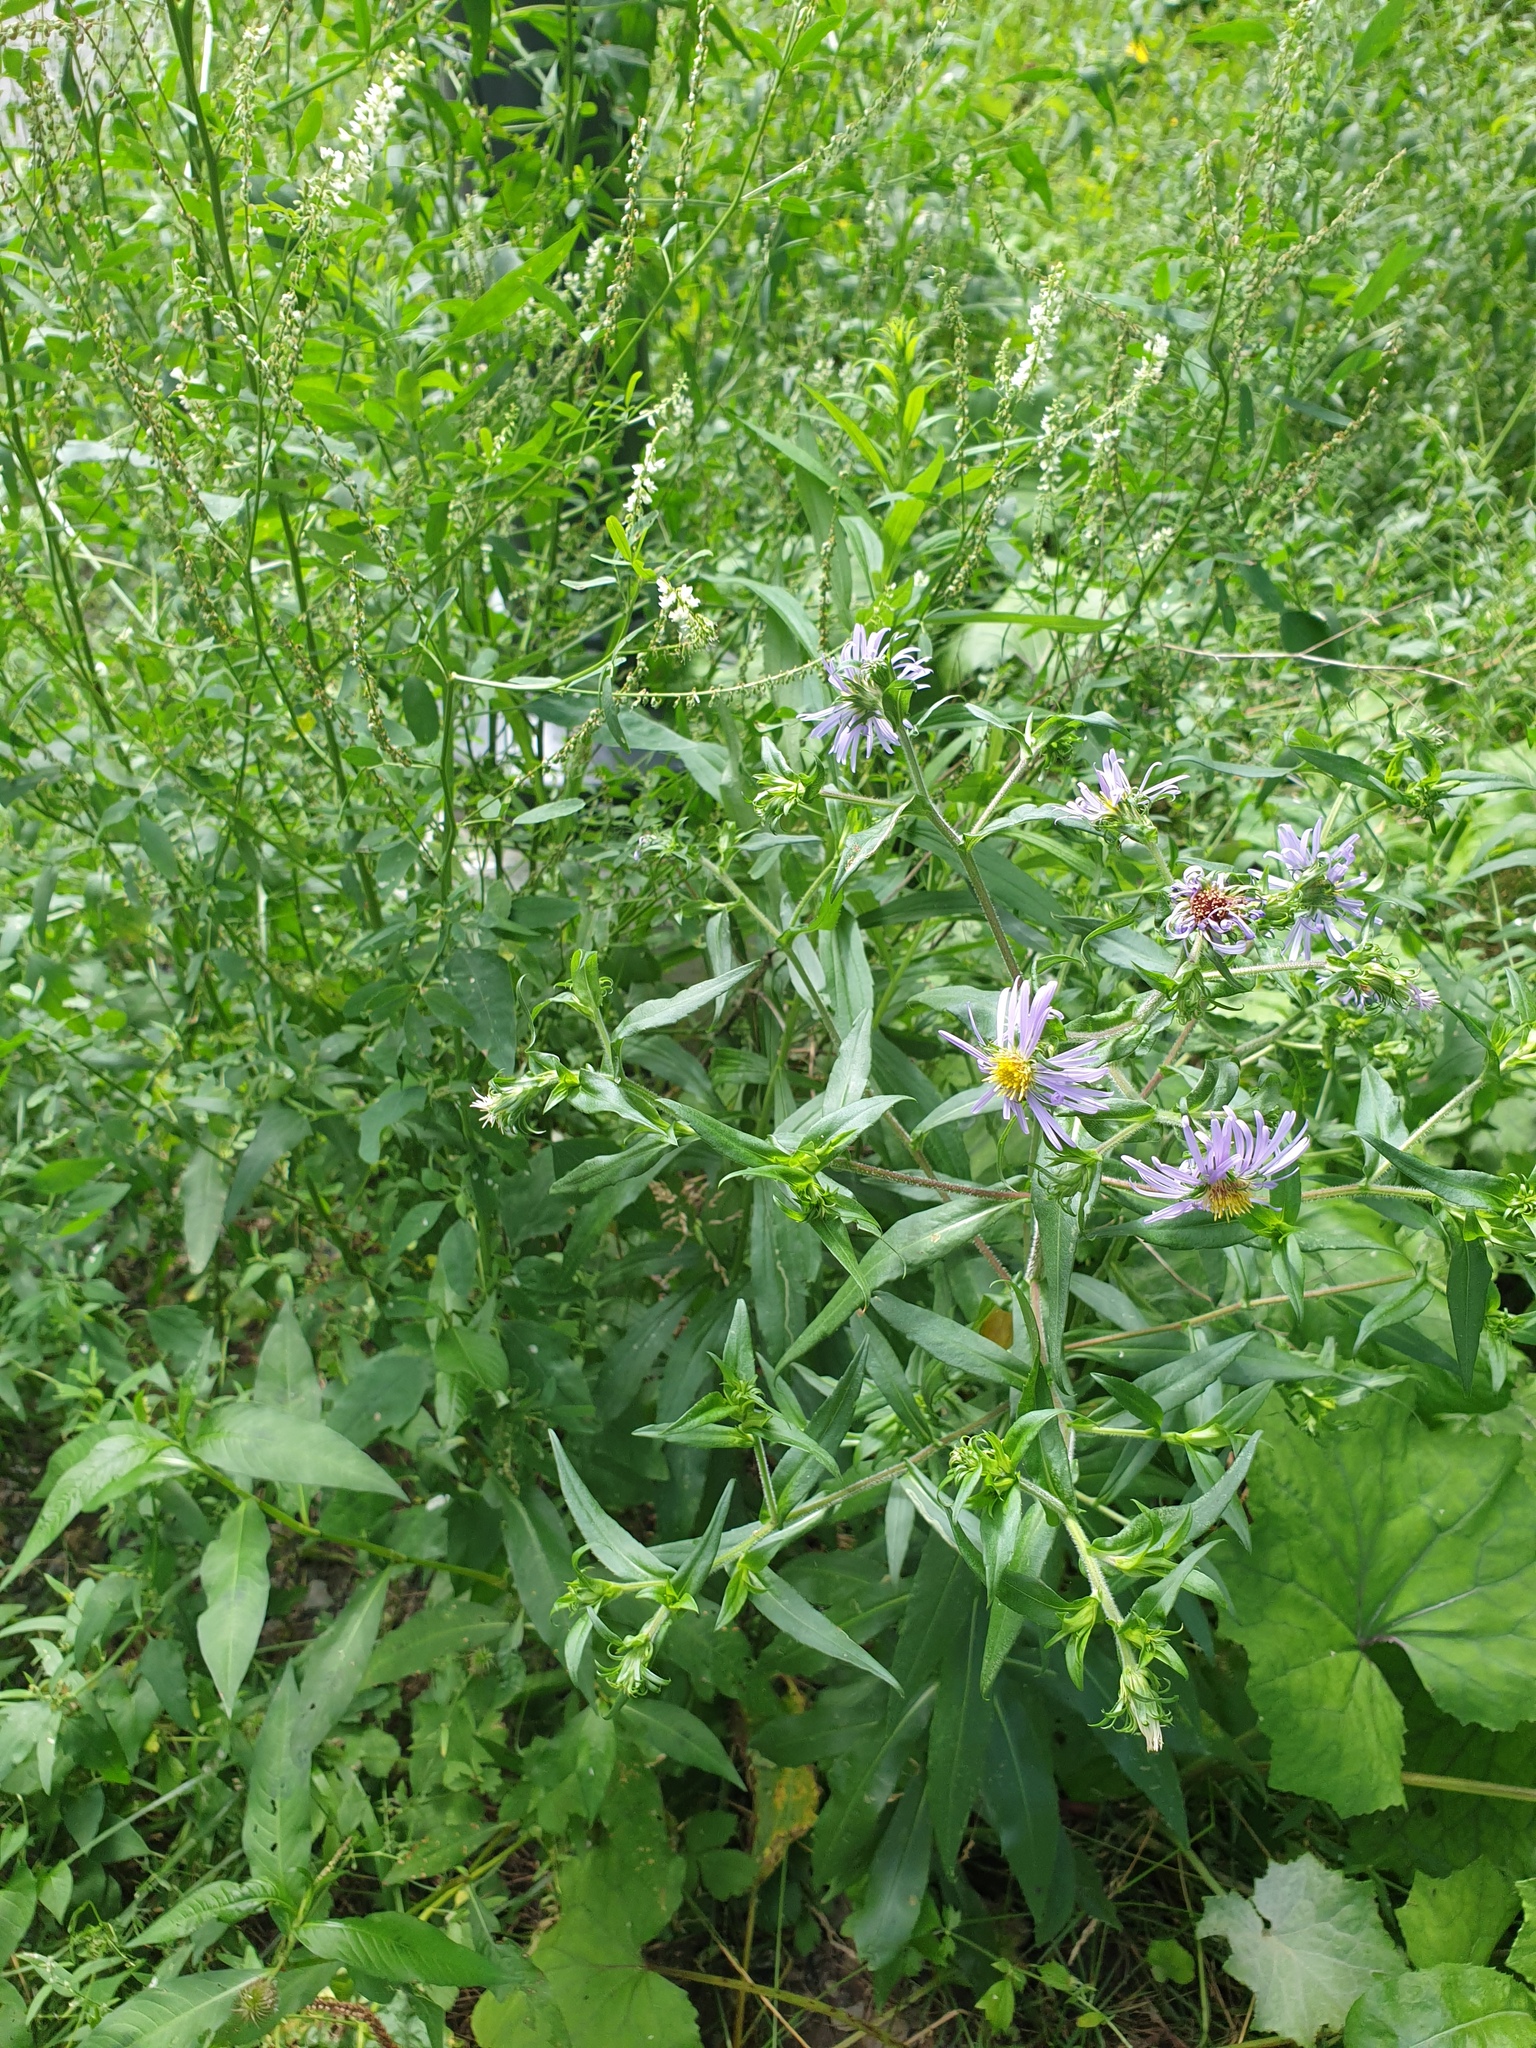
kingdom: Plantae
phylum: Tracheophyta
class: Magnoliopsida
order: Asterales
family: Asteraceae
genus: Symphyotrichum
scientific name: Symphyotrichum puniceum
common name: Bog aster
